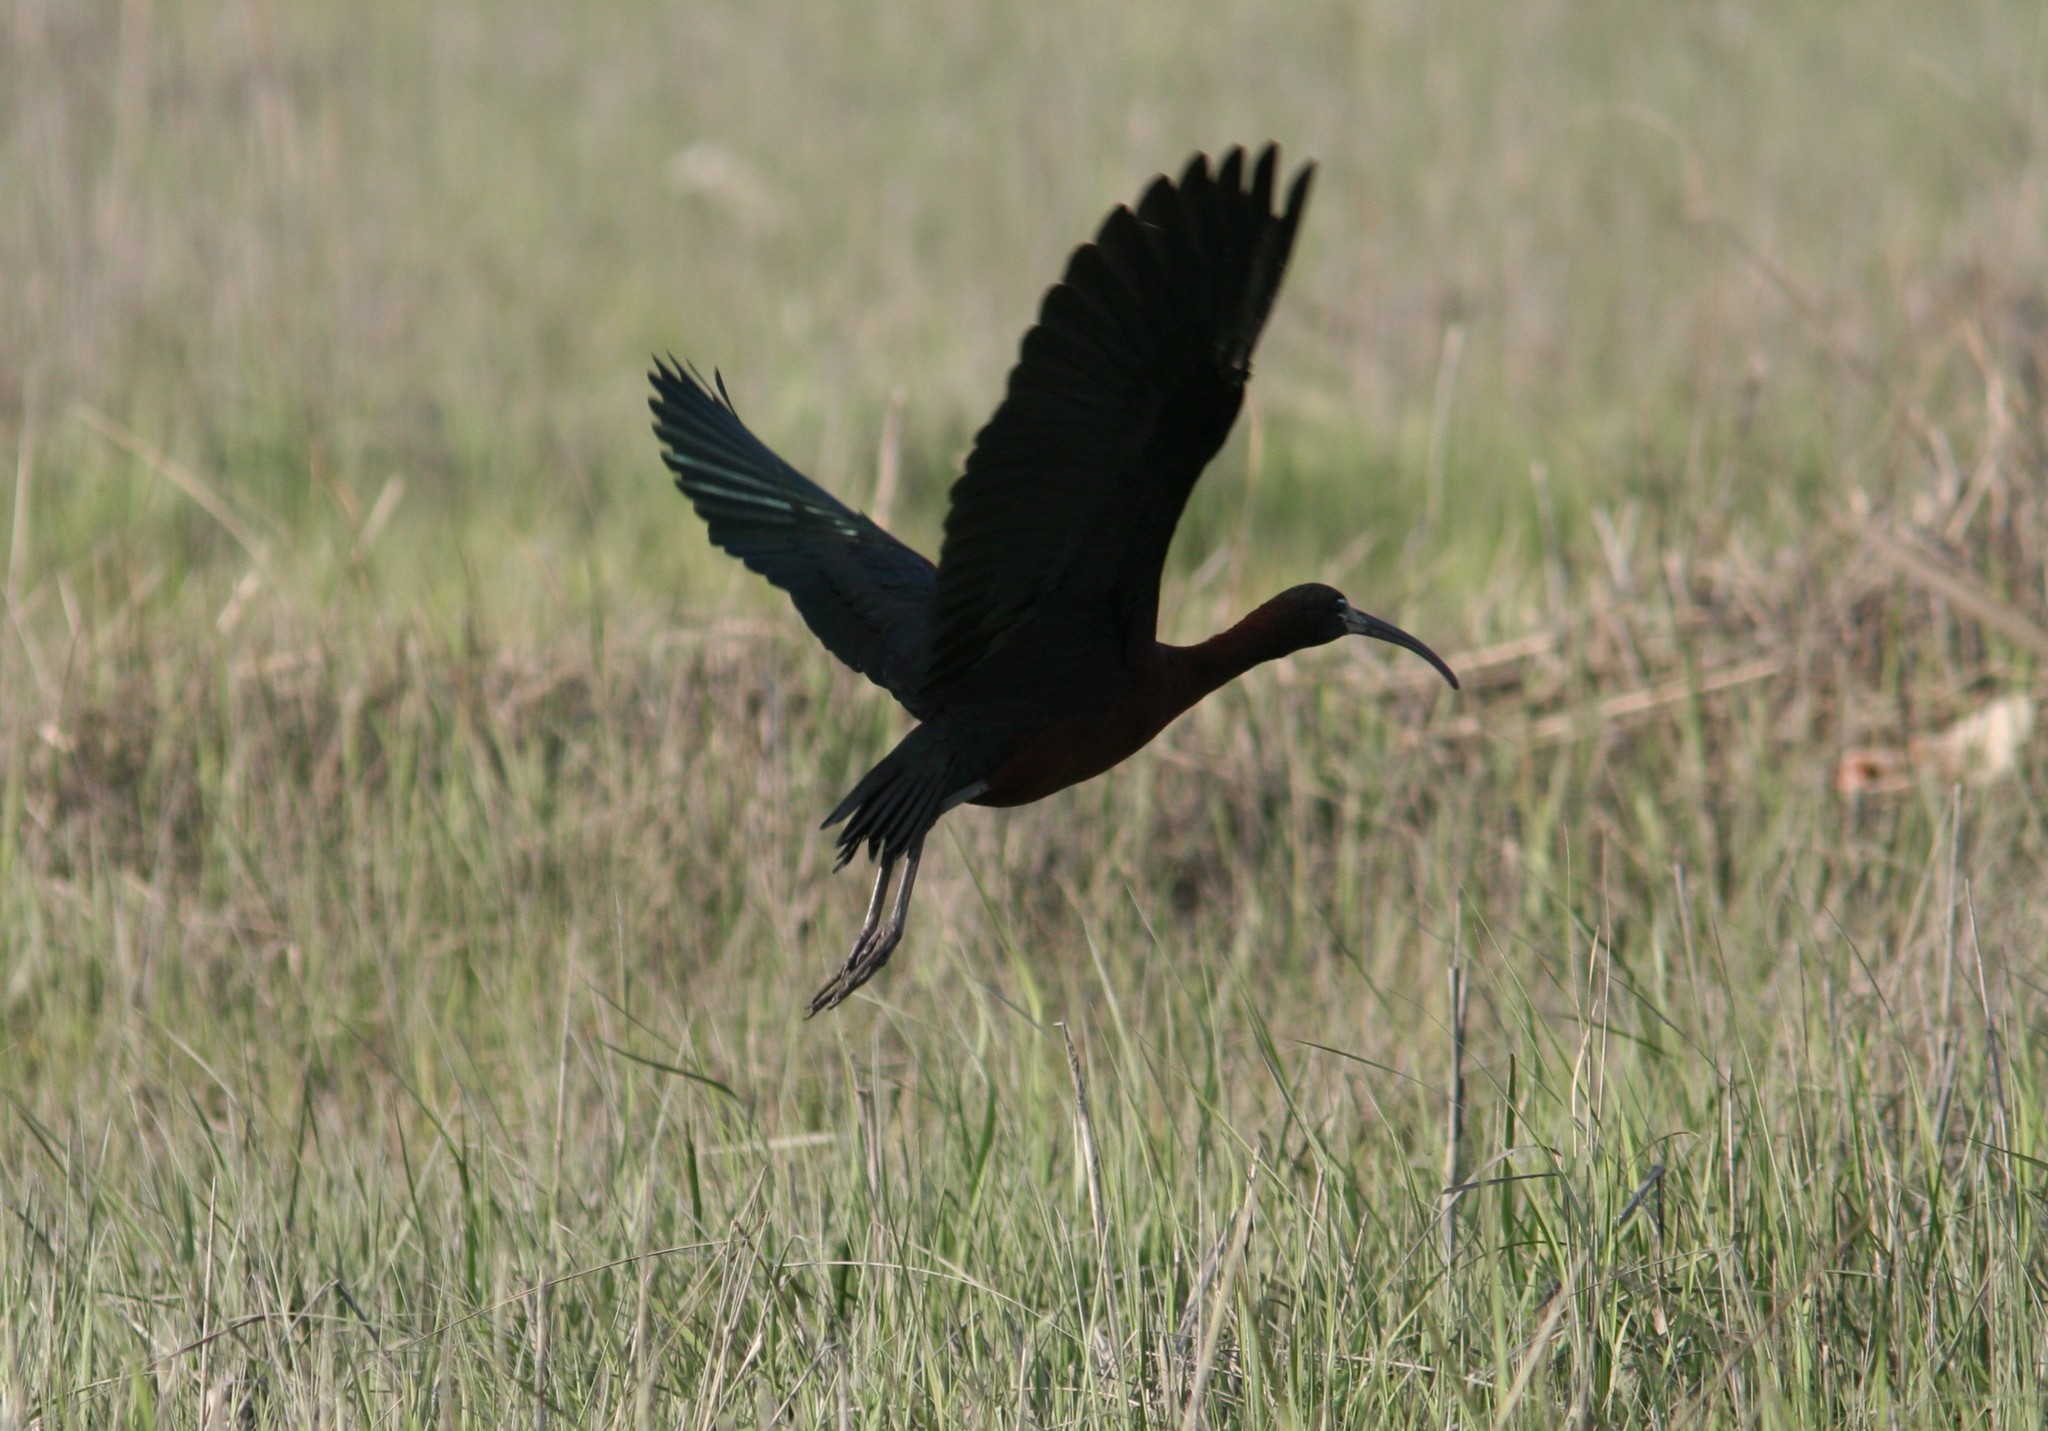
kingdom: Animalia
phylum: Chordata
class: Aves
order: Pelecaniformes
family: Threskiornithidae
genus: Plegadis
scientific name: Plegadis falcinellus
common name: Glossy ibis
